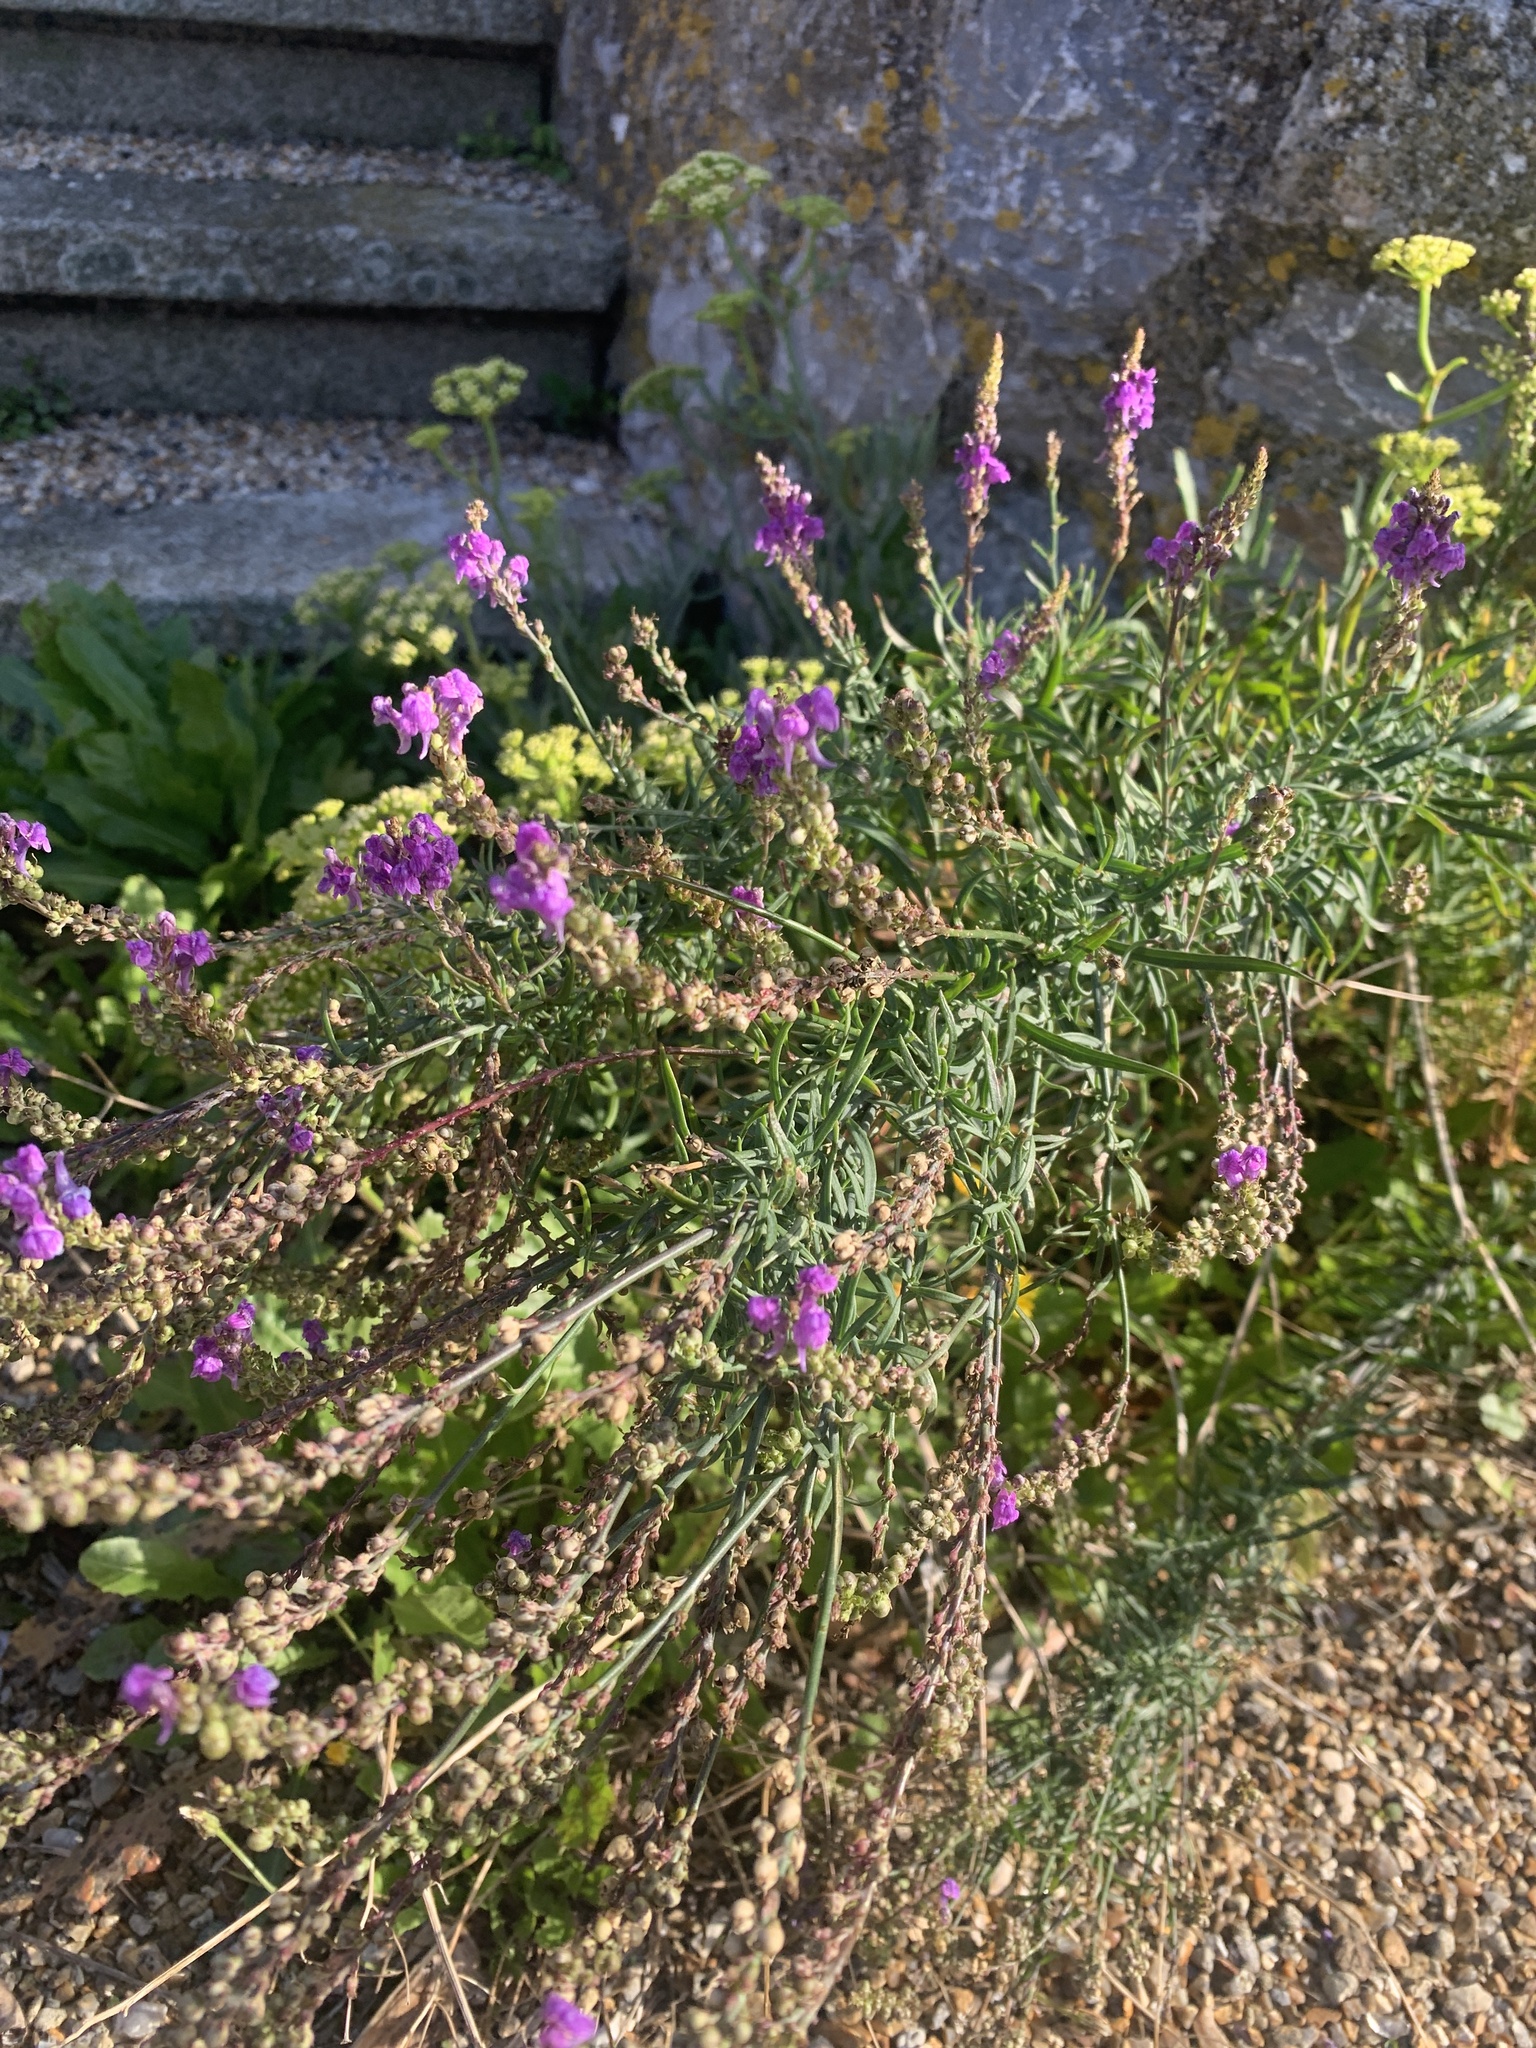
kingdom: Plantae
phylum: Tracheophyta
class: Magnoliopsida
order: Lamiales
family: Plantaginaceae
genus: Linaria
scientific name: Linaria purpurea
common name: Purple toadflax
